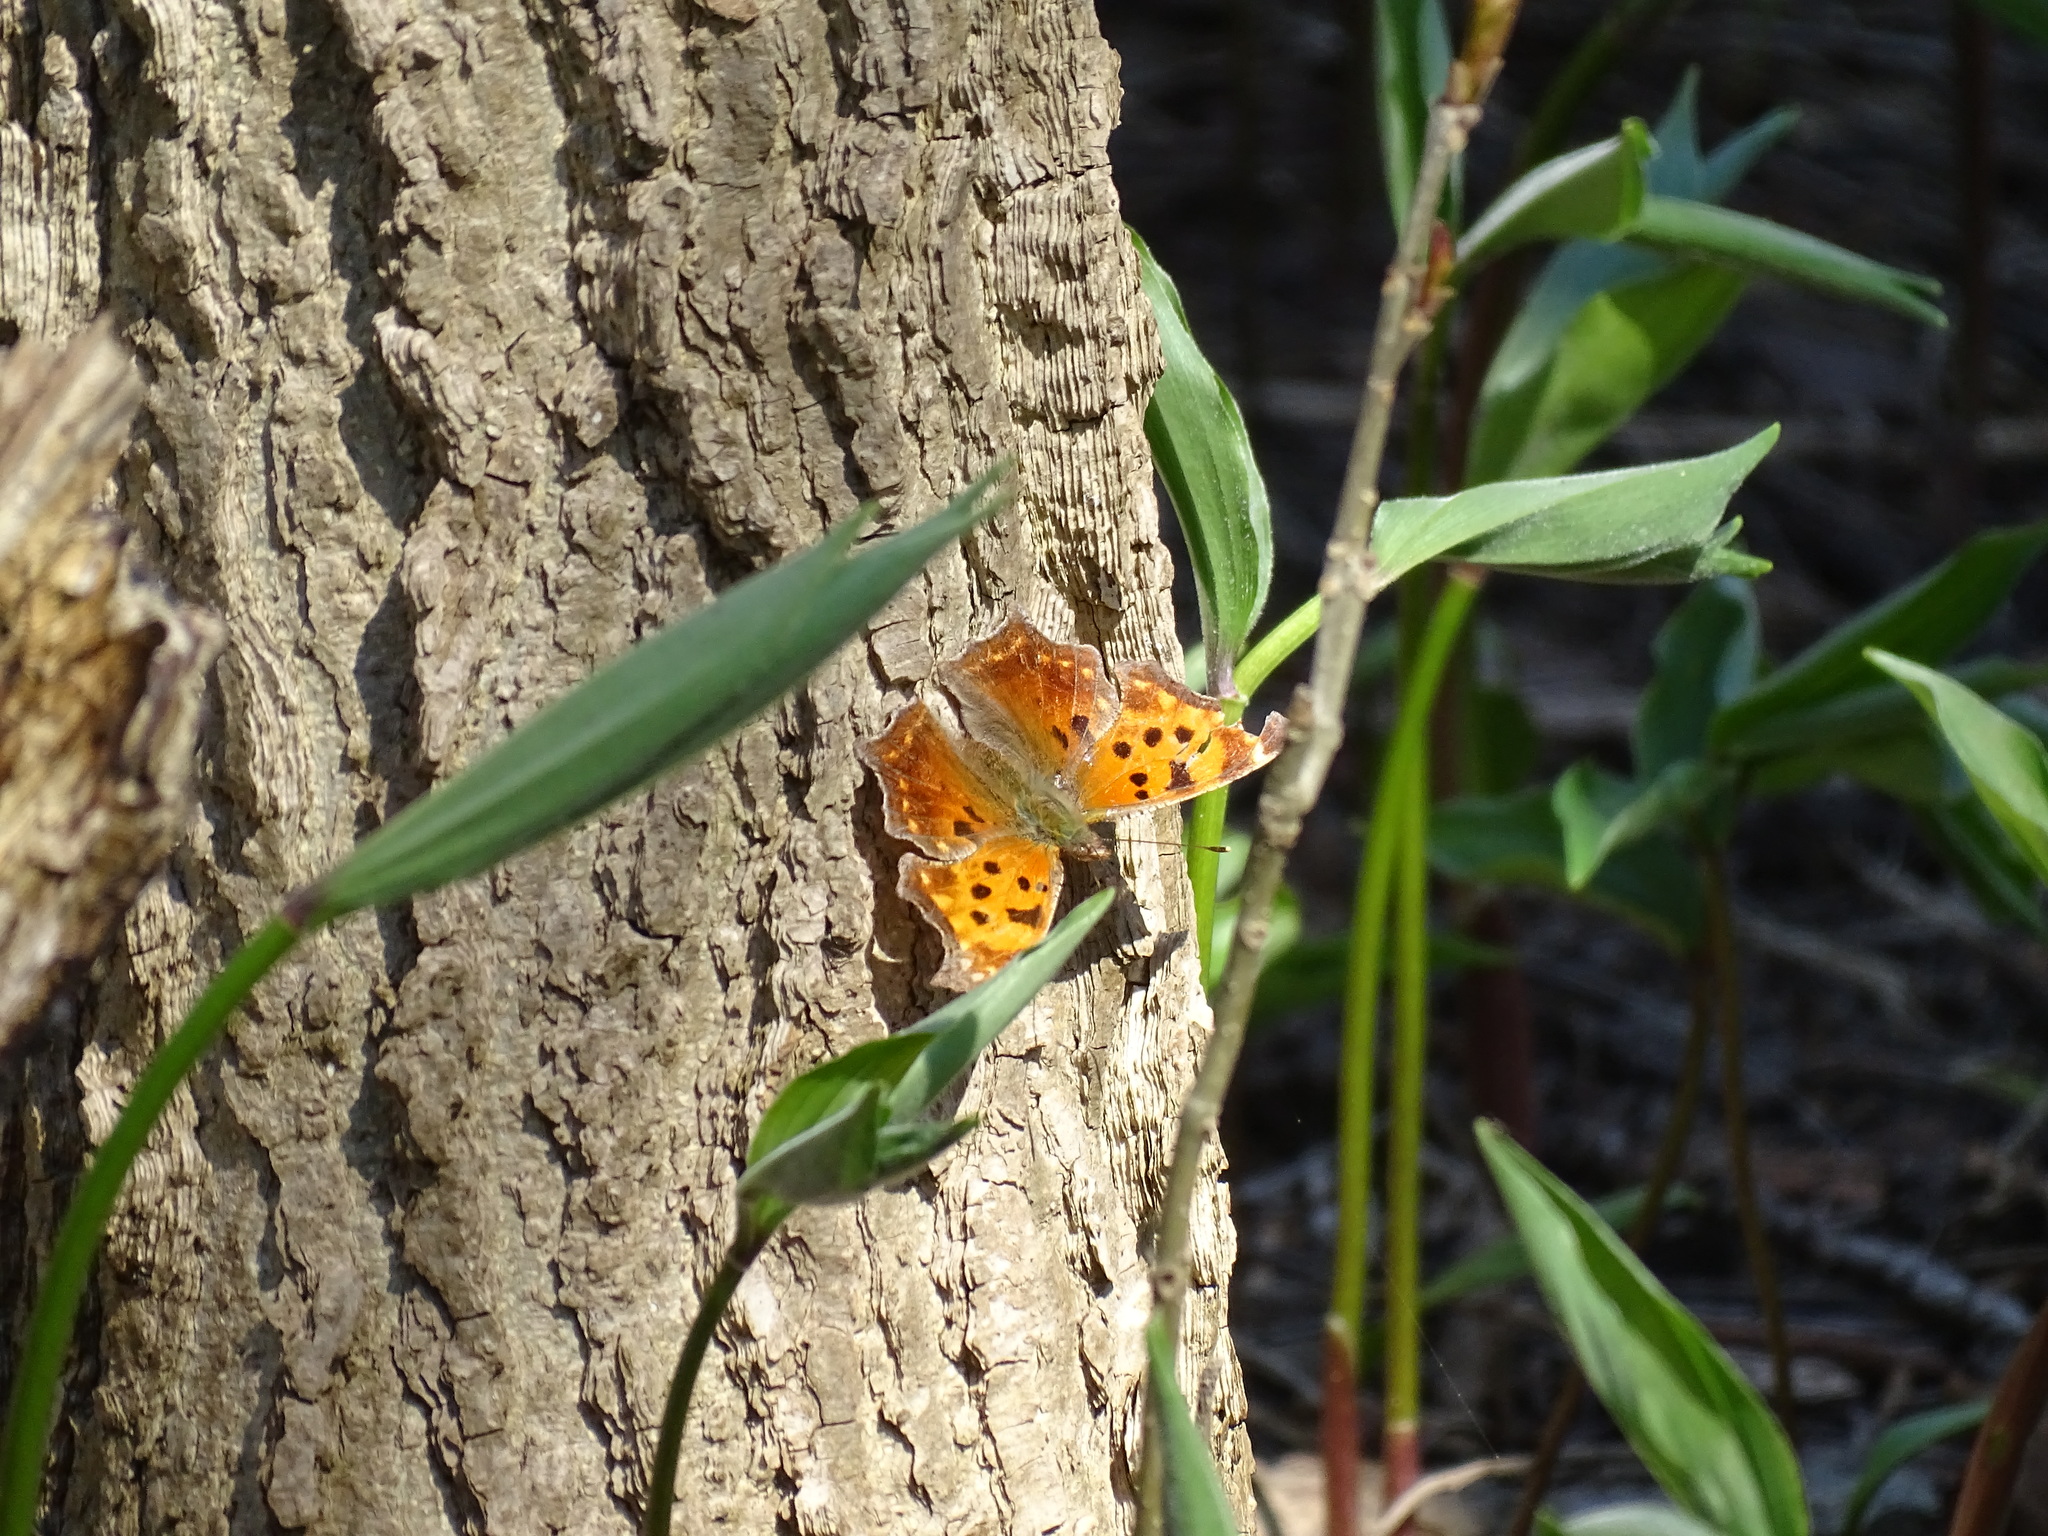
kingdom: Animalia
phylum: Arthropoda
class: Insecta
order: Lepidoptera
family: Nymphalidae
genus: Polygonia
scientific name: Polygonia comma
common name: Eastern comma
